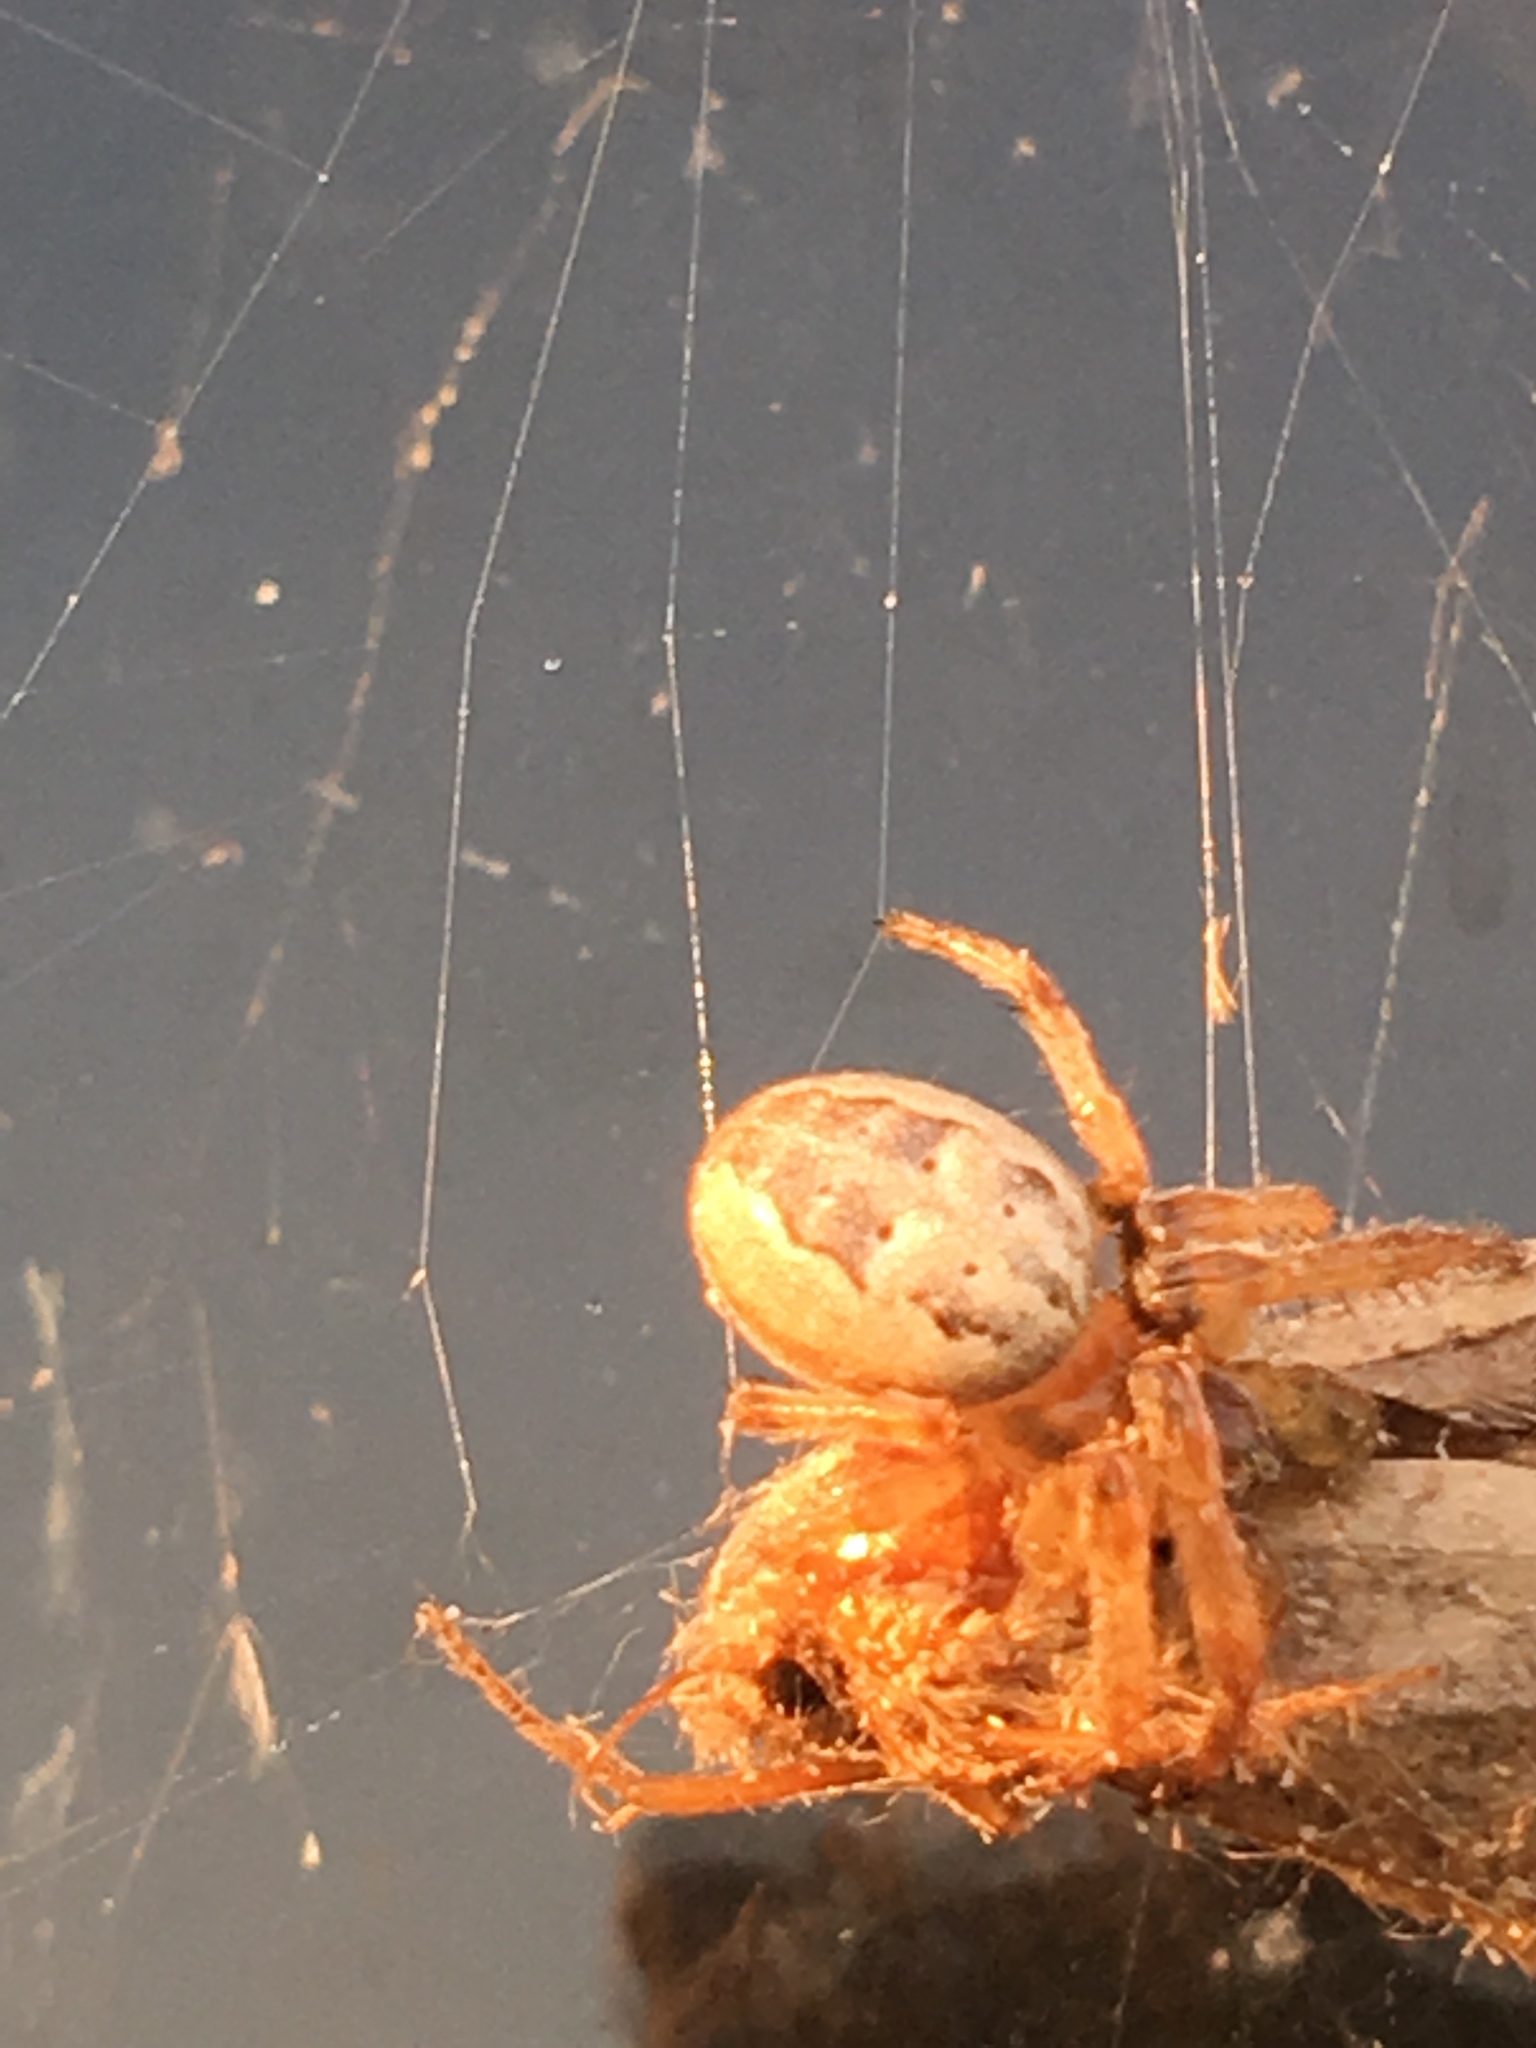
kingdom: Animalia
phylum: Arthropoda
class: Arachnida
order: Araneae
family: Araneidae
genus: Larinioides
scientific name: Larinioides cornutus
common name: Furrow orbweaver
